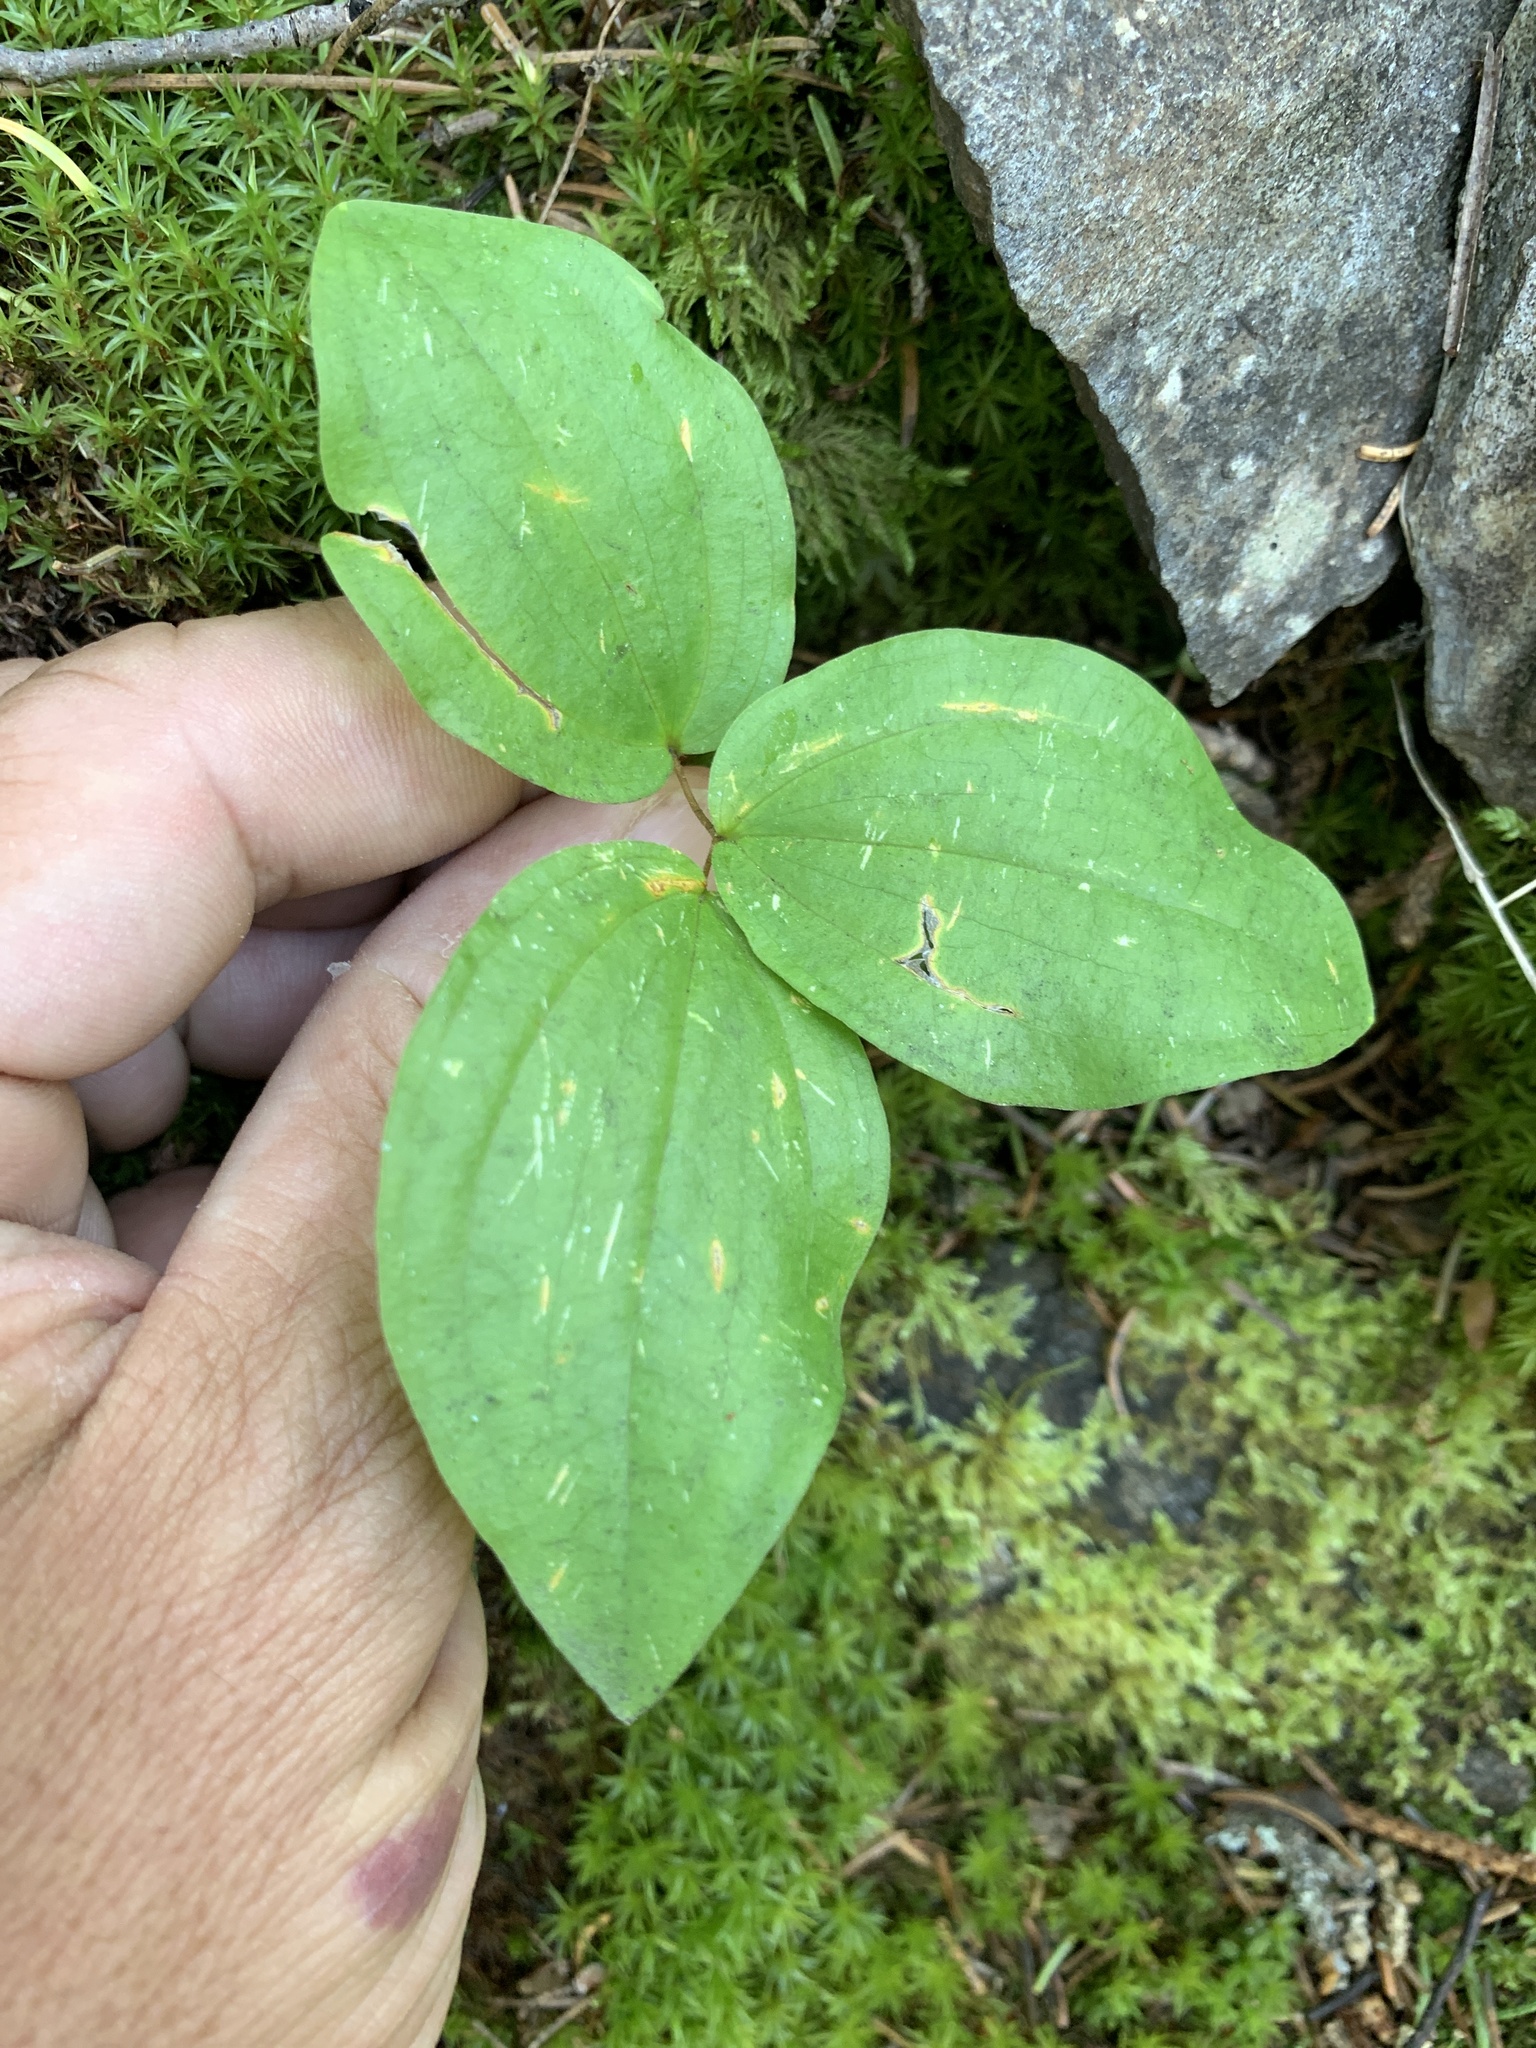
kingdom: Plantae
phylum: Tracheophyta
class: Liliopsida
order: Liliales
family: Liliaceae
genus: Prosartes
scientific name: Prosartes trachycarpa
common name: Rough-fruit fairy-bells
